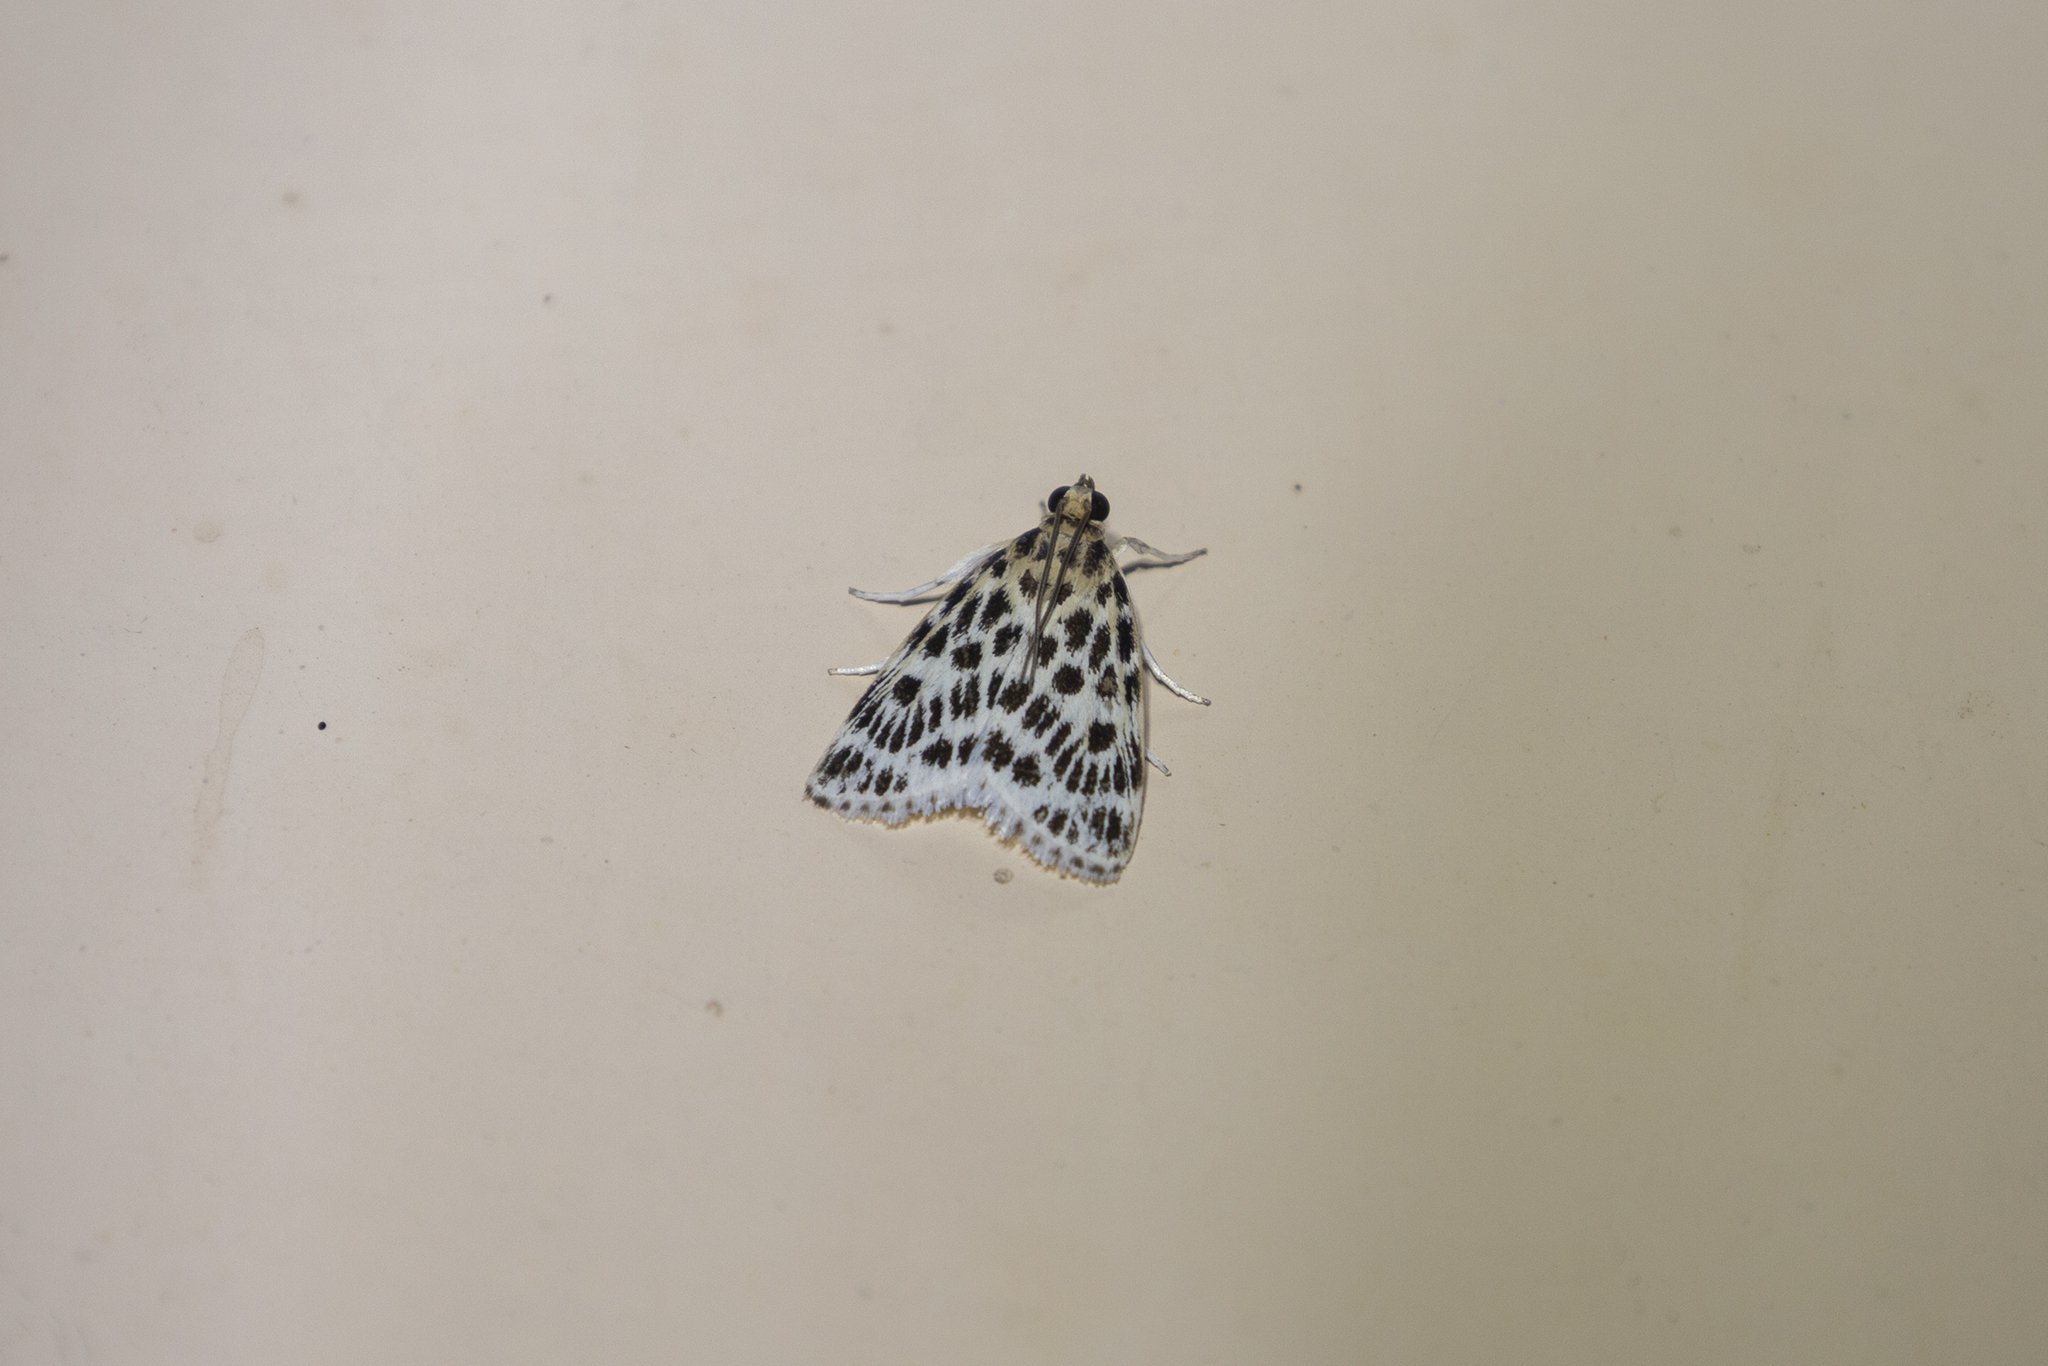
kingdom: Animalia
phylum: Arthropoda
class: Insecta
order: Lepidoptera
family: Crambidae
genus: Erpis
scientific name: Erpis macularis
